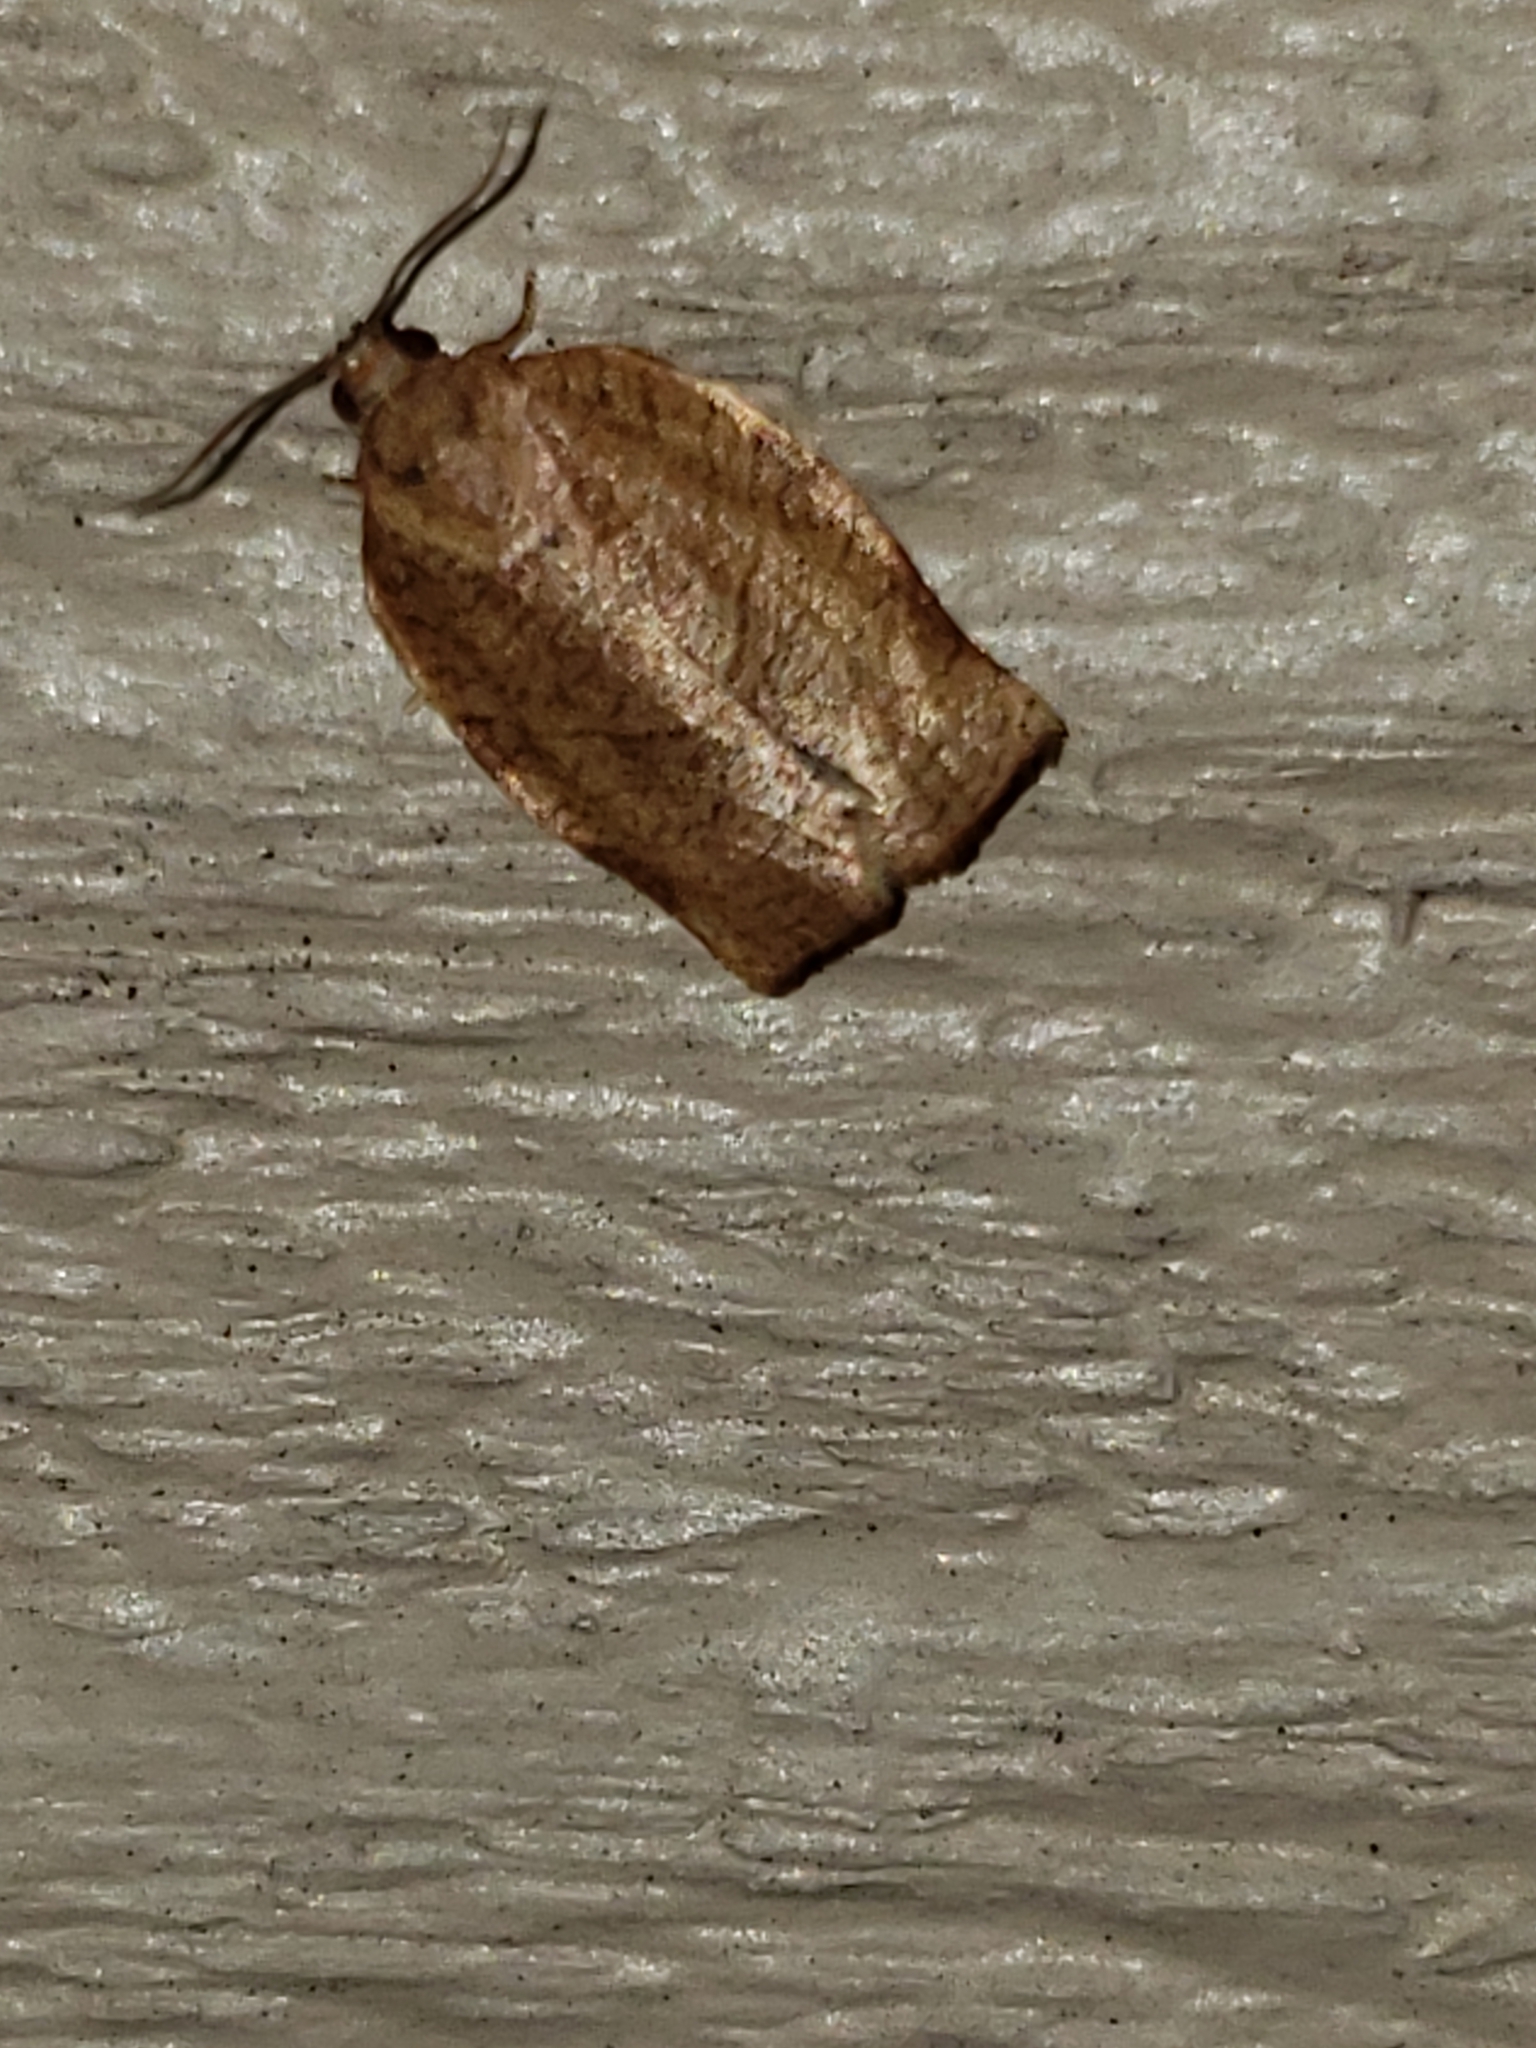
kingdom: Animalia
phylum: Arthropoda
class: Insecta
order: Lepidoptera
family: Tortricidae
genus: Choristoneura
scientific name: Choristoneura rosaceana
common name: Oblique-banded leafroller moth
